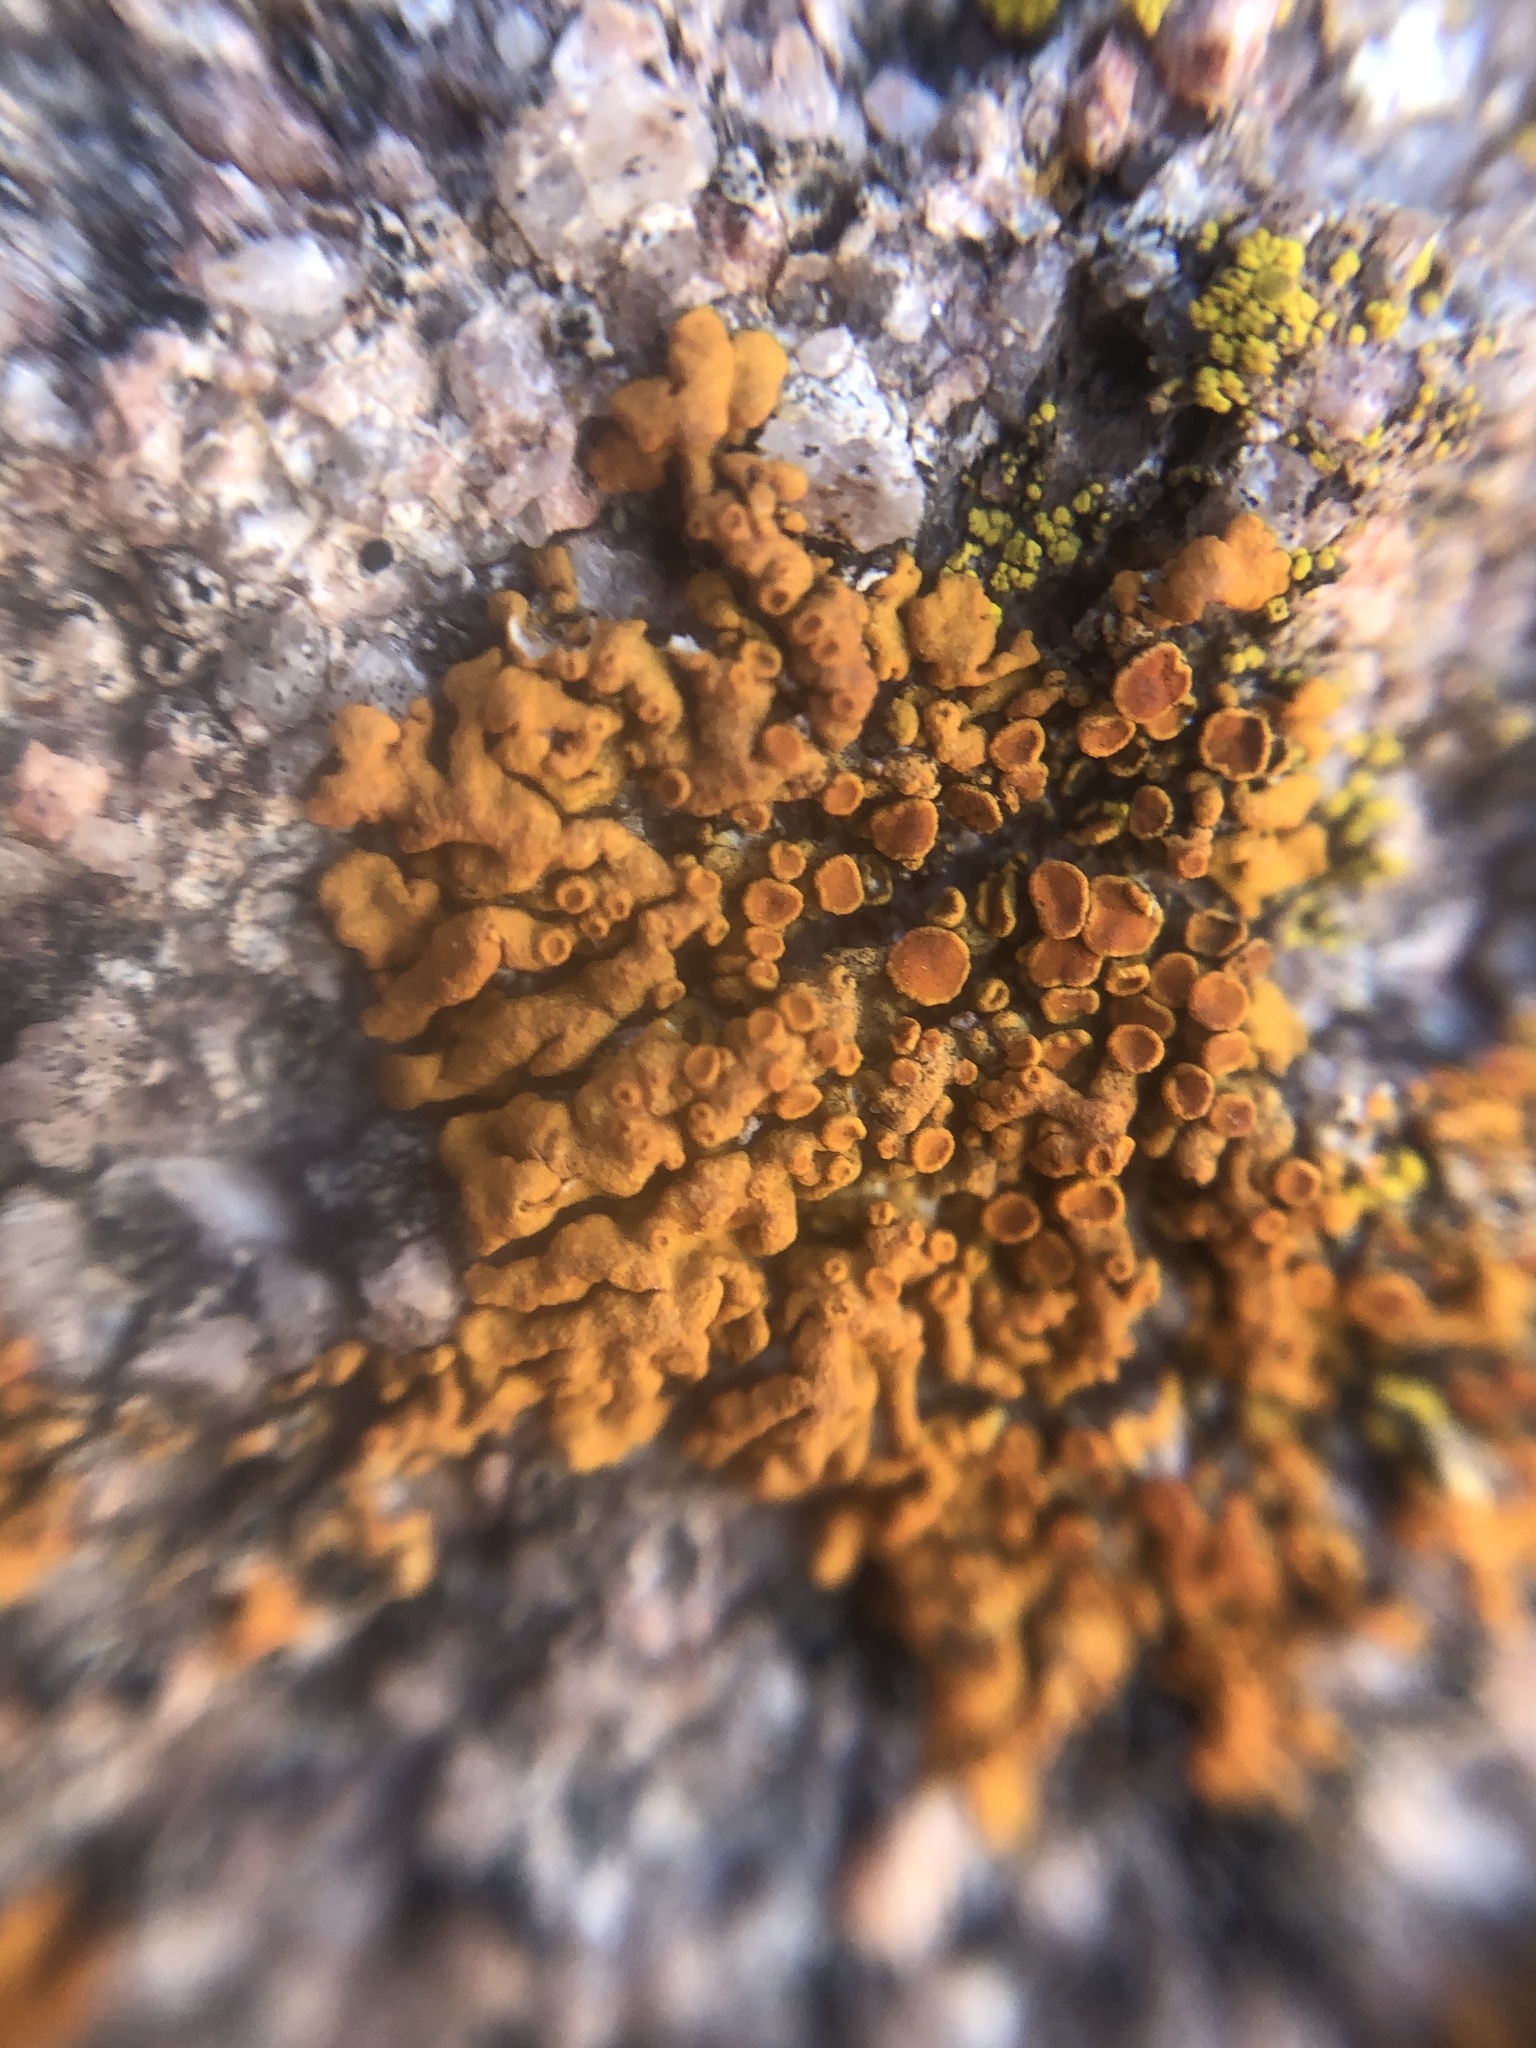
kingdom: Fungi
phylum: Ascomycota
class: Lecanoromycetes
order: Teloschistales
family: Teloschistaceae
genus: Xanthoria
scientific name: Xanthoria elegans
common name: Elegant sunburst lichen
